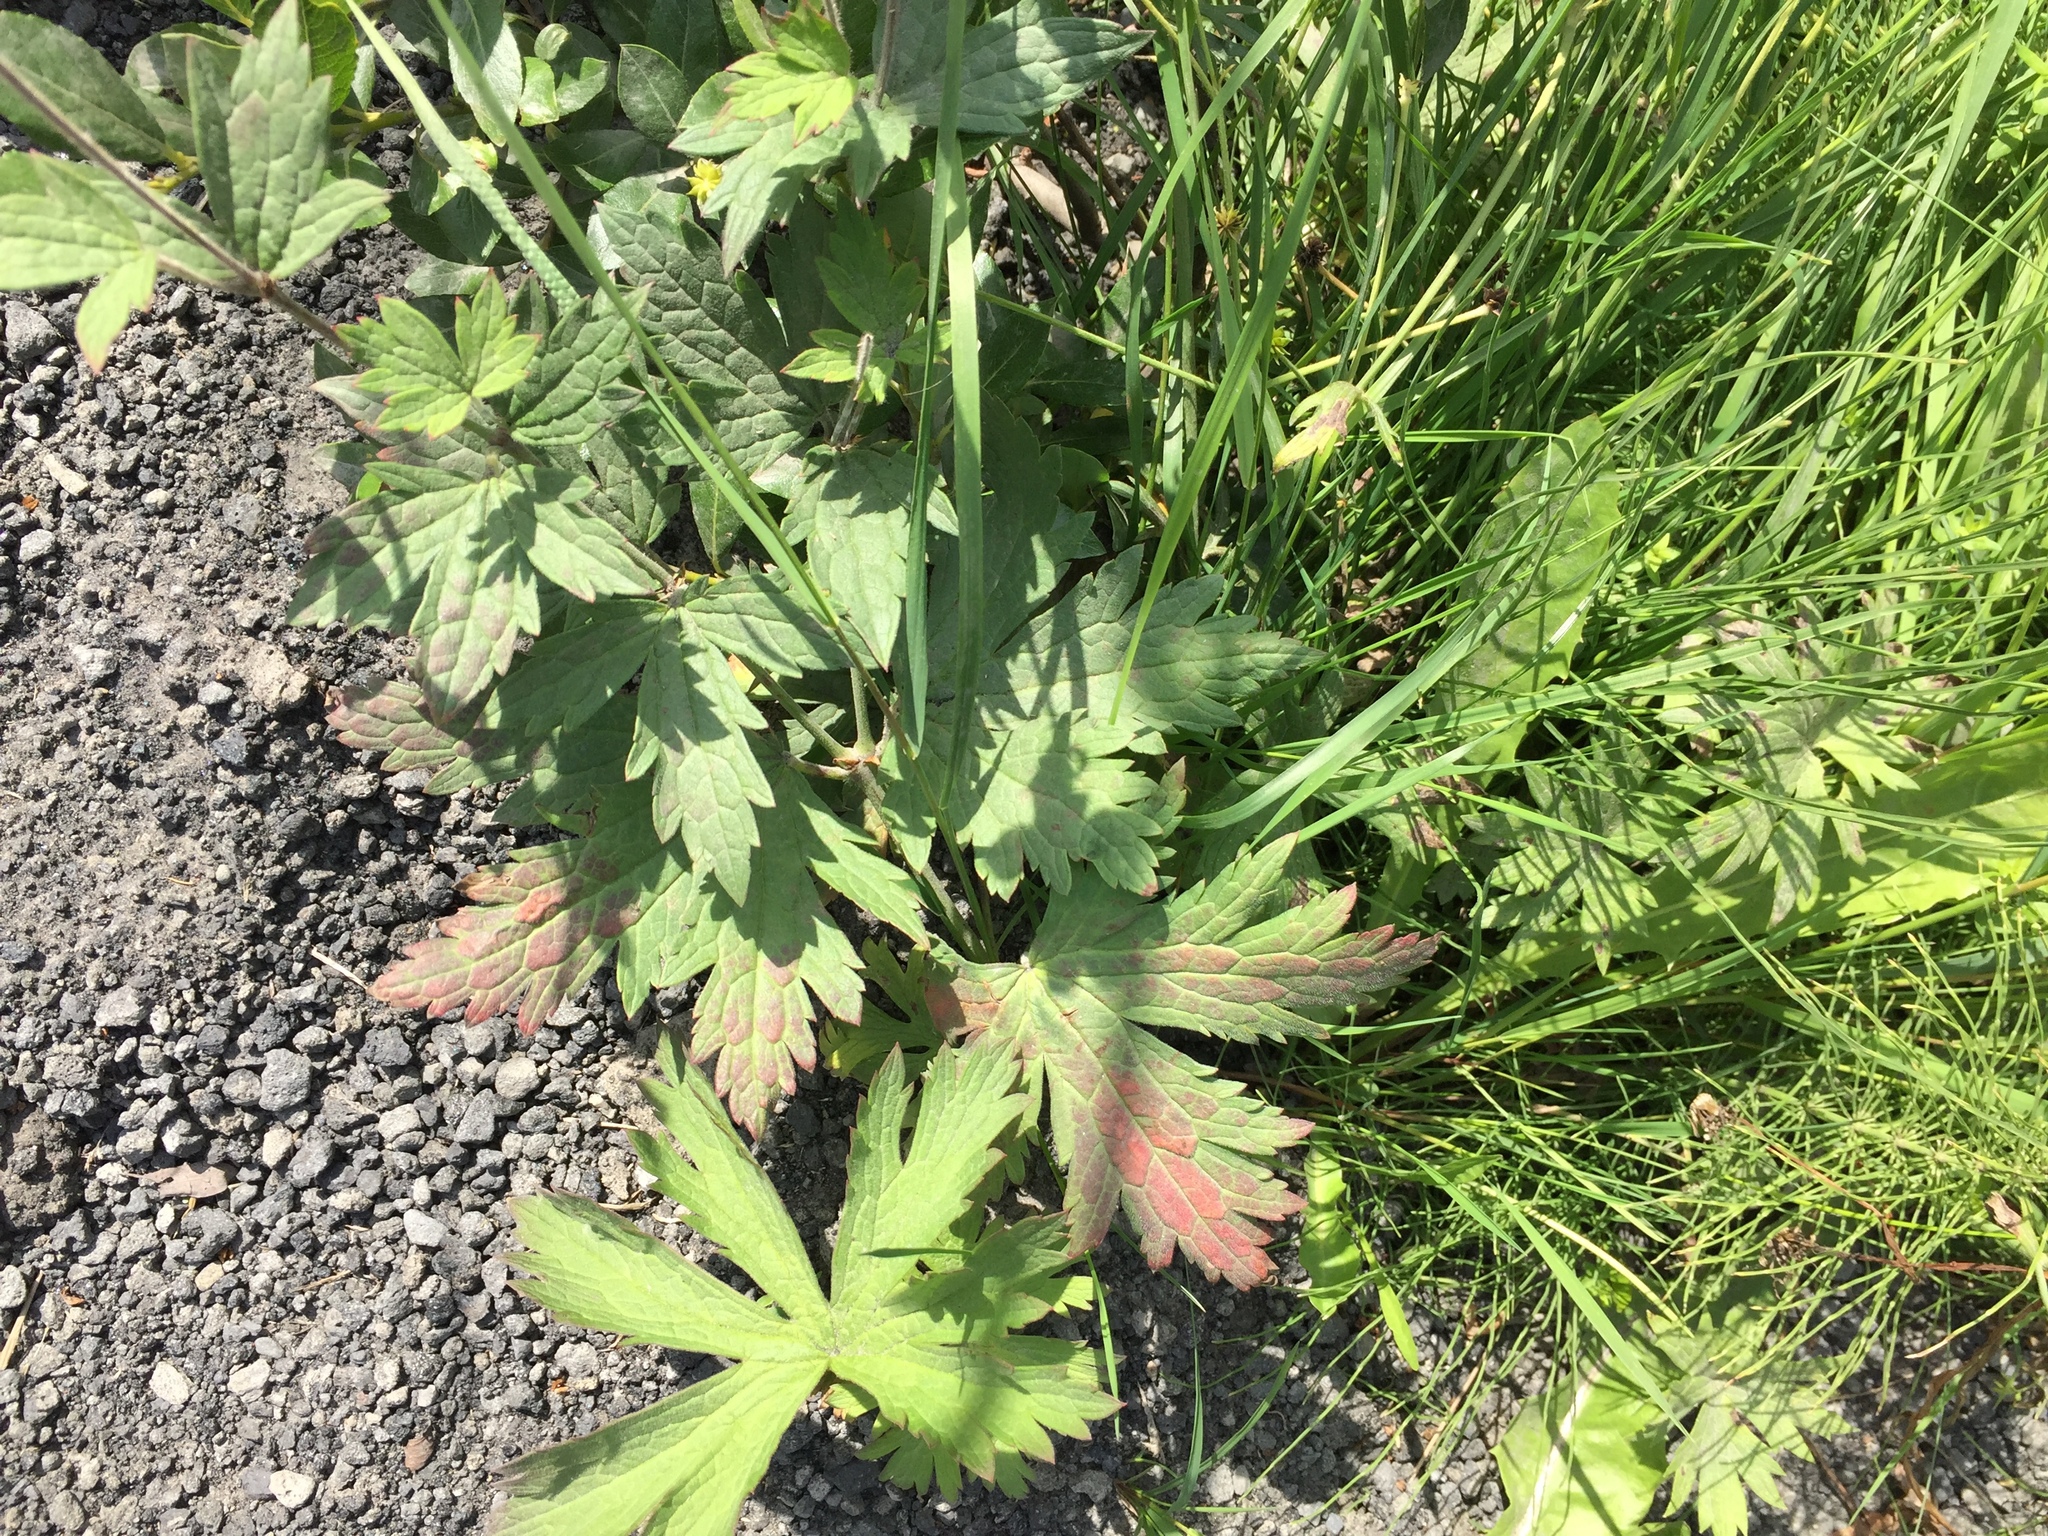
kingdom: Plantae
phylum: Tracheophyta
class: Magnoliopsida
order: Geraniales
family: Geraniaceae
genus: Geranium
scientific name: Geranium sylvaticum
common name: Wood crane's-bill
